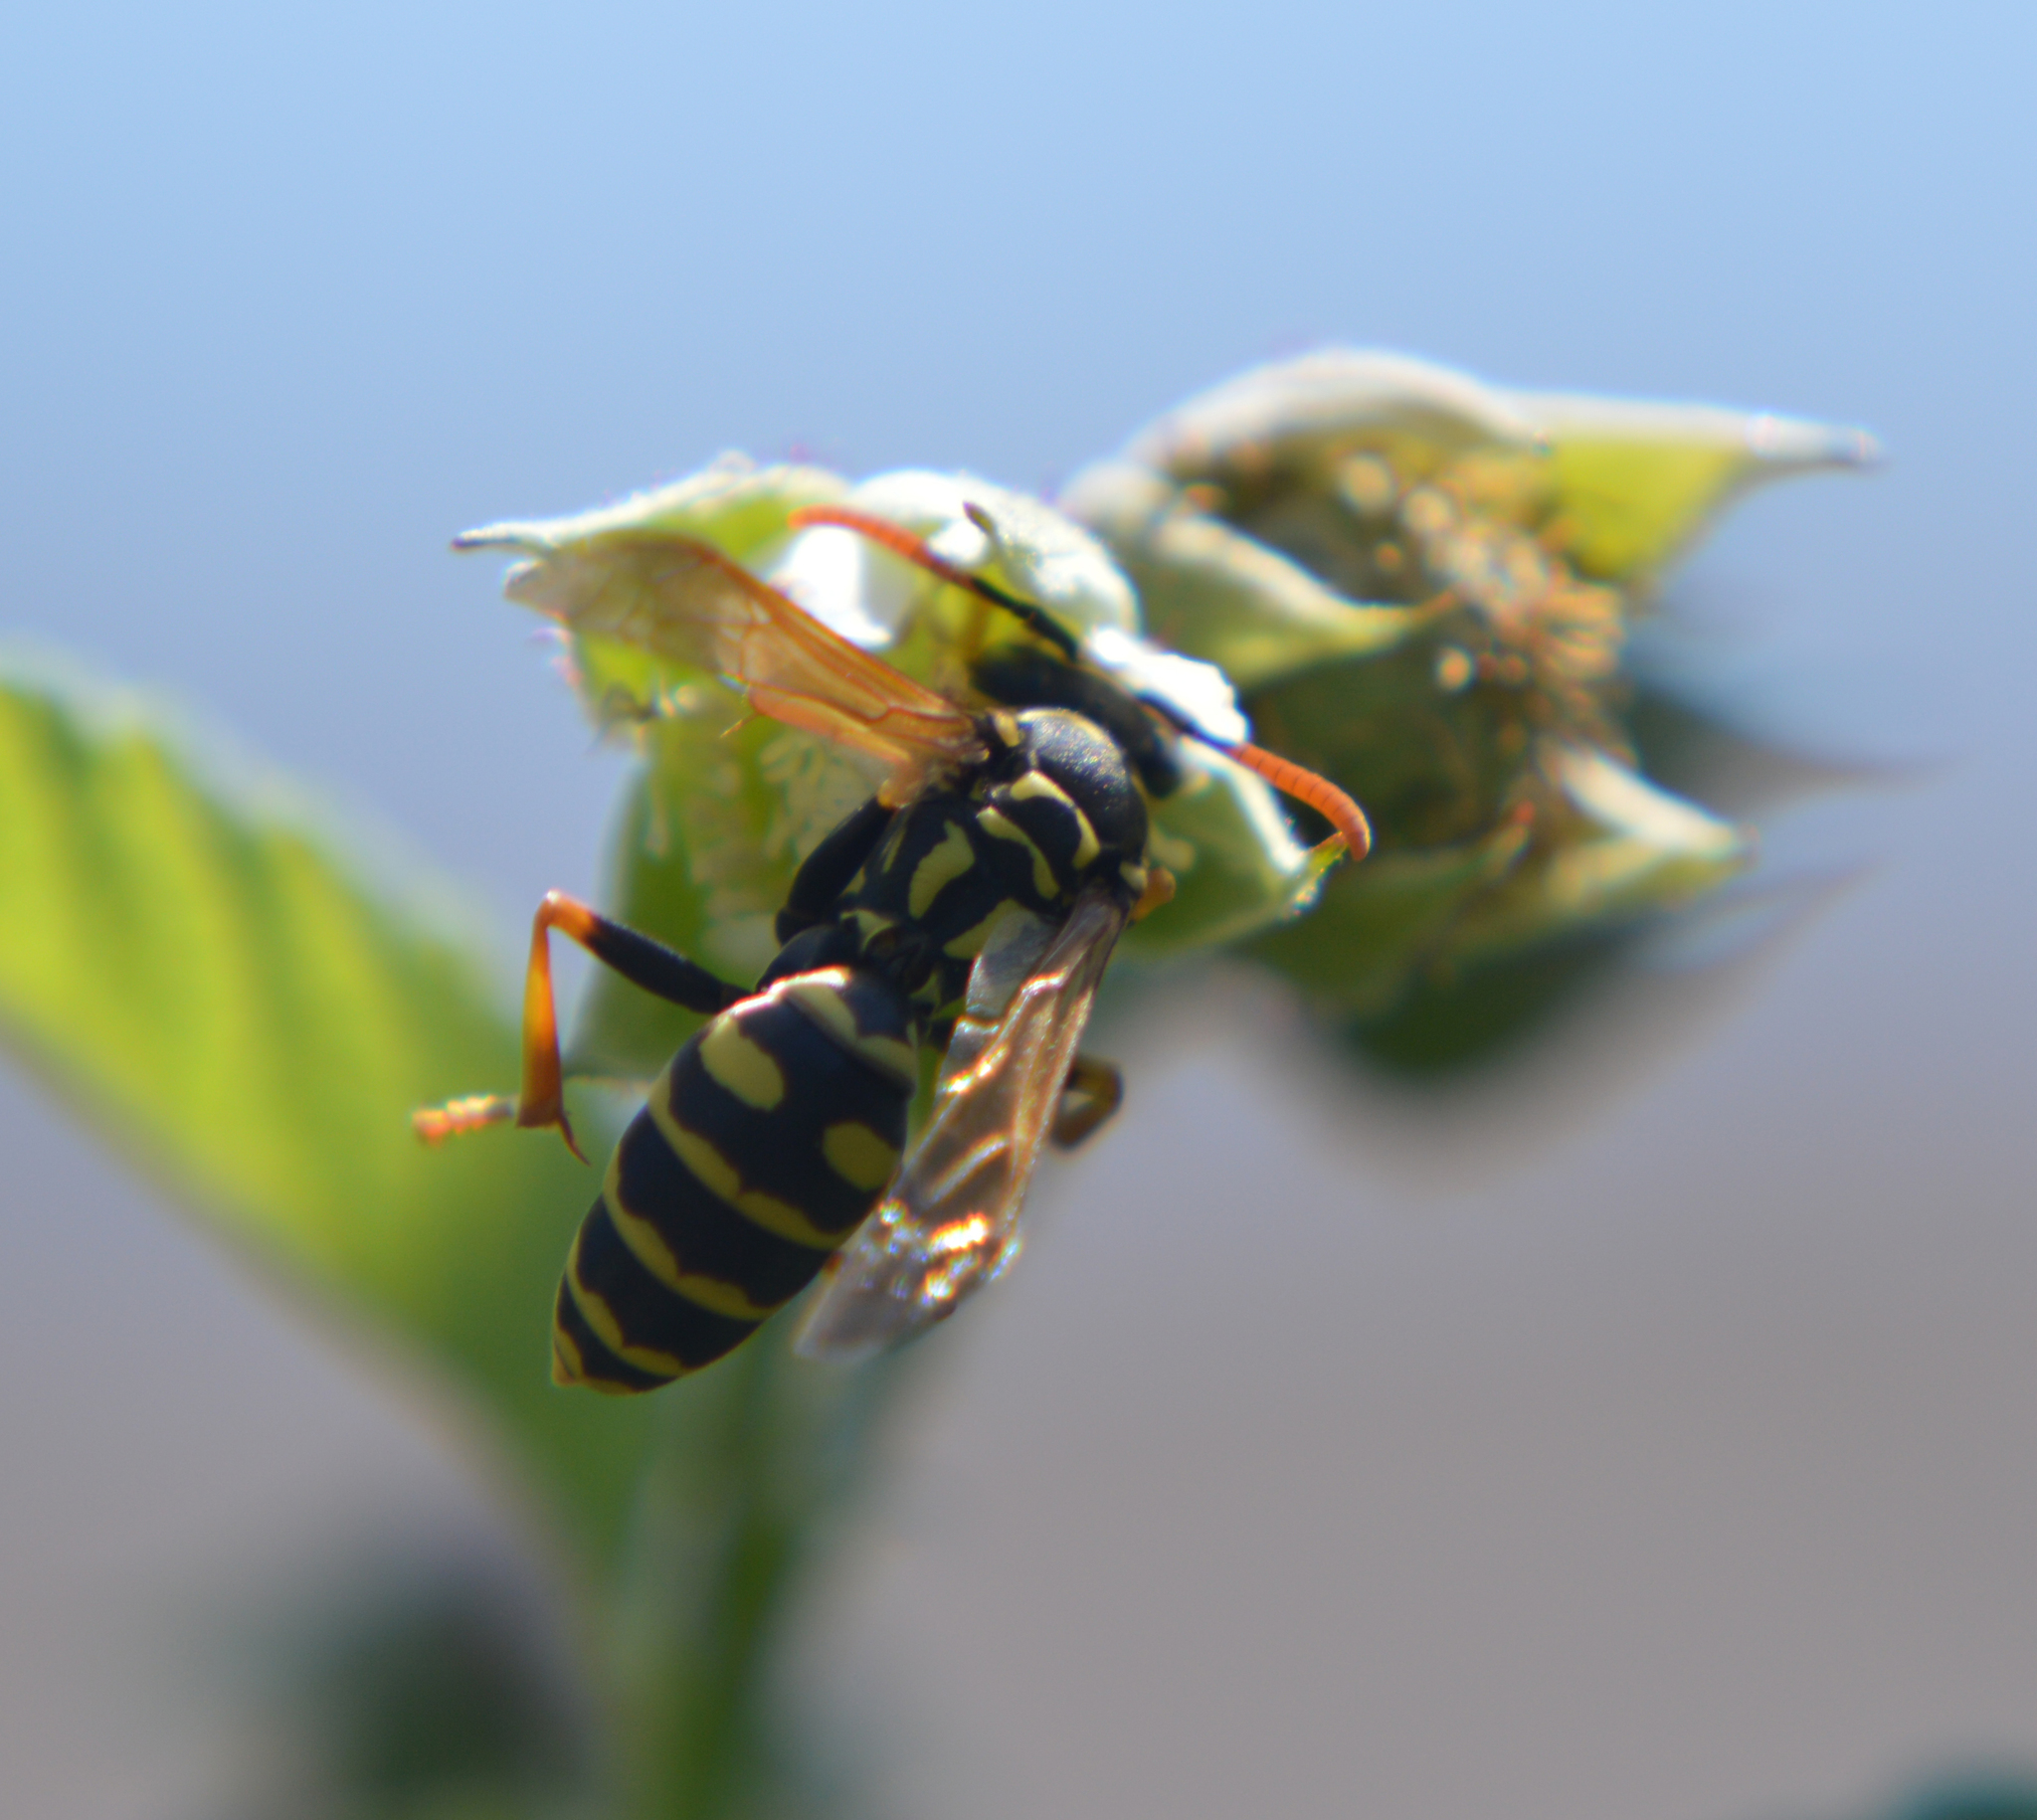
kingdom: Animalia
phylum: Arthropoda
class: Insecta
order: Hymenoptera
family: Eumenidae
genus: Polistes
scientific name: Polistes
